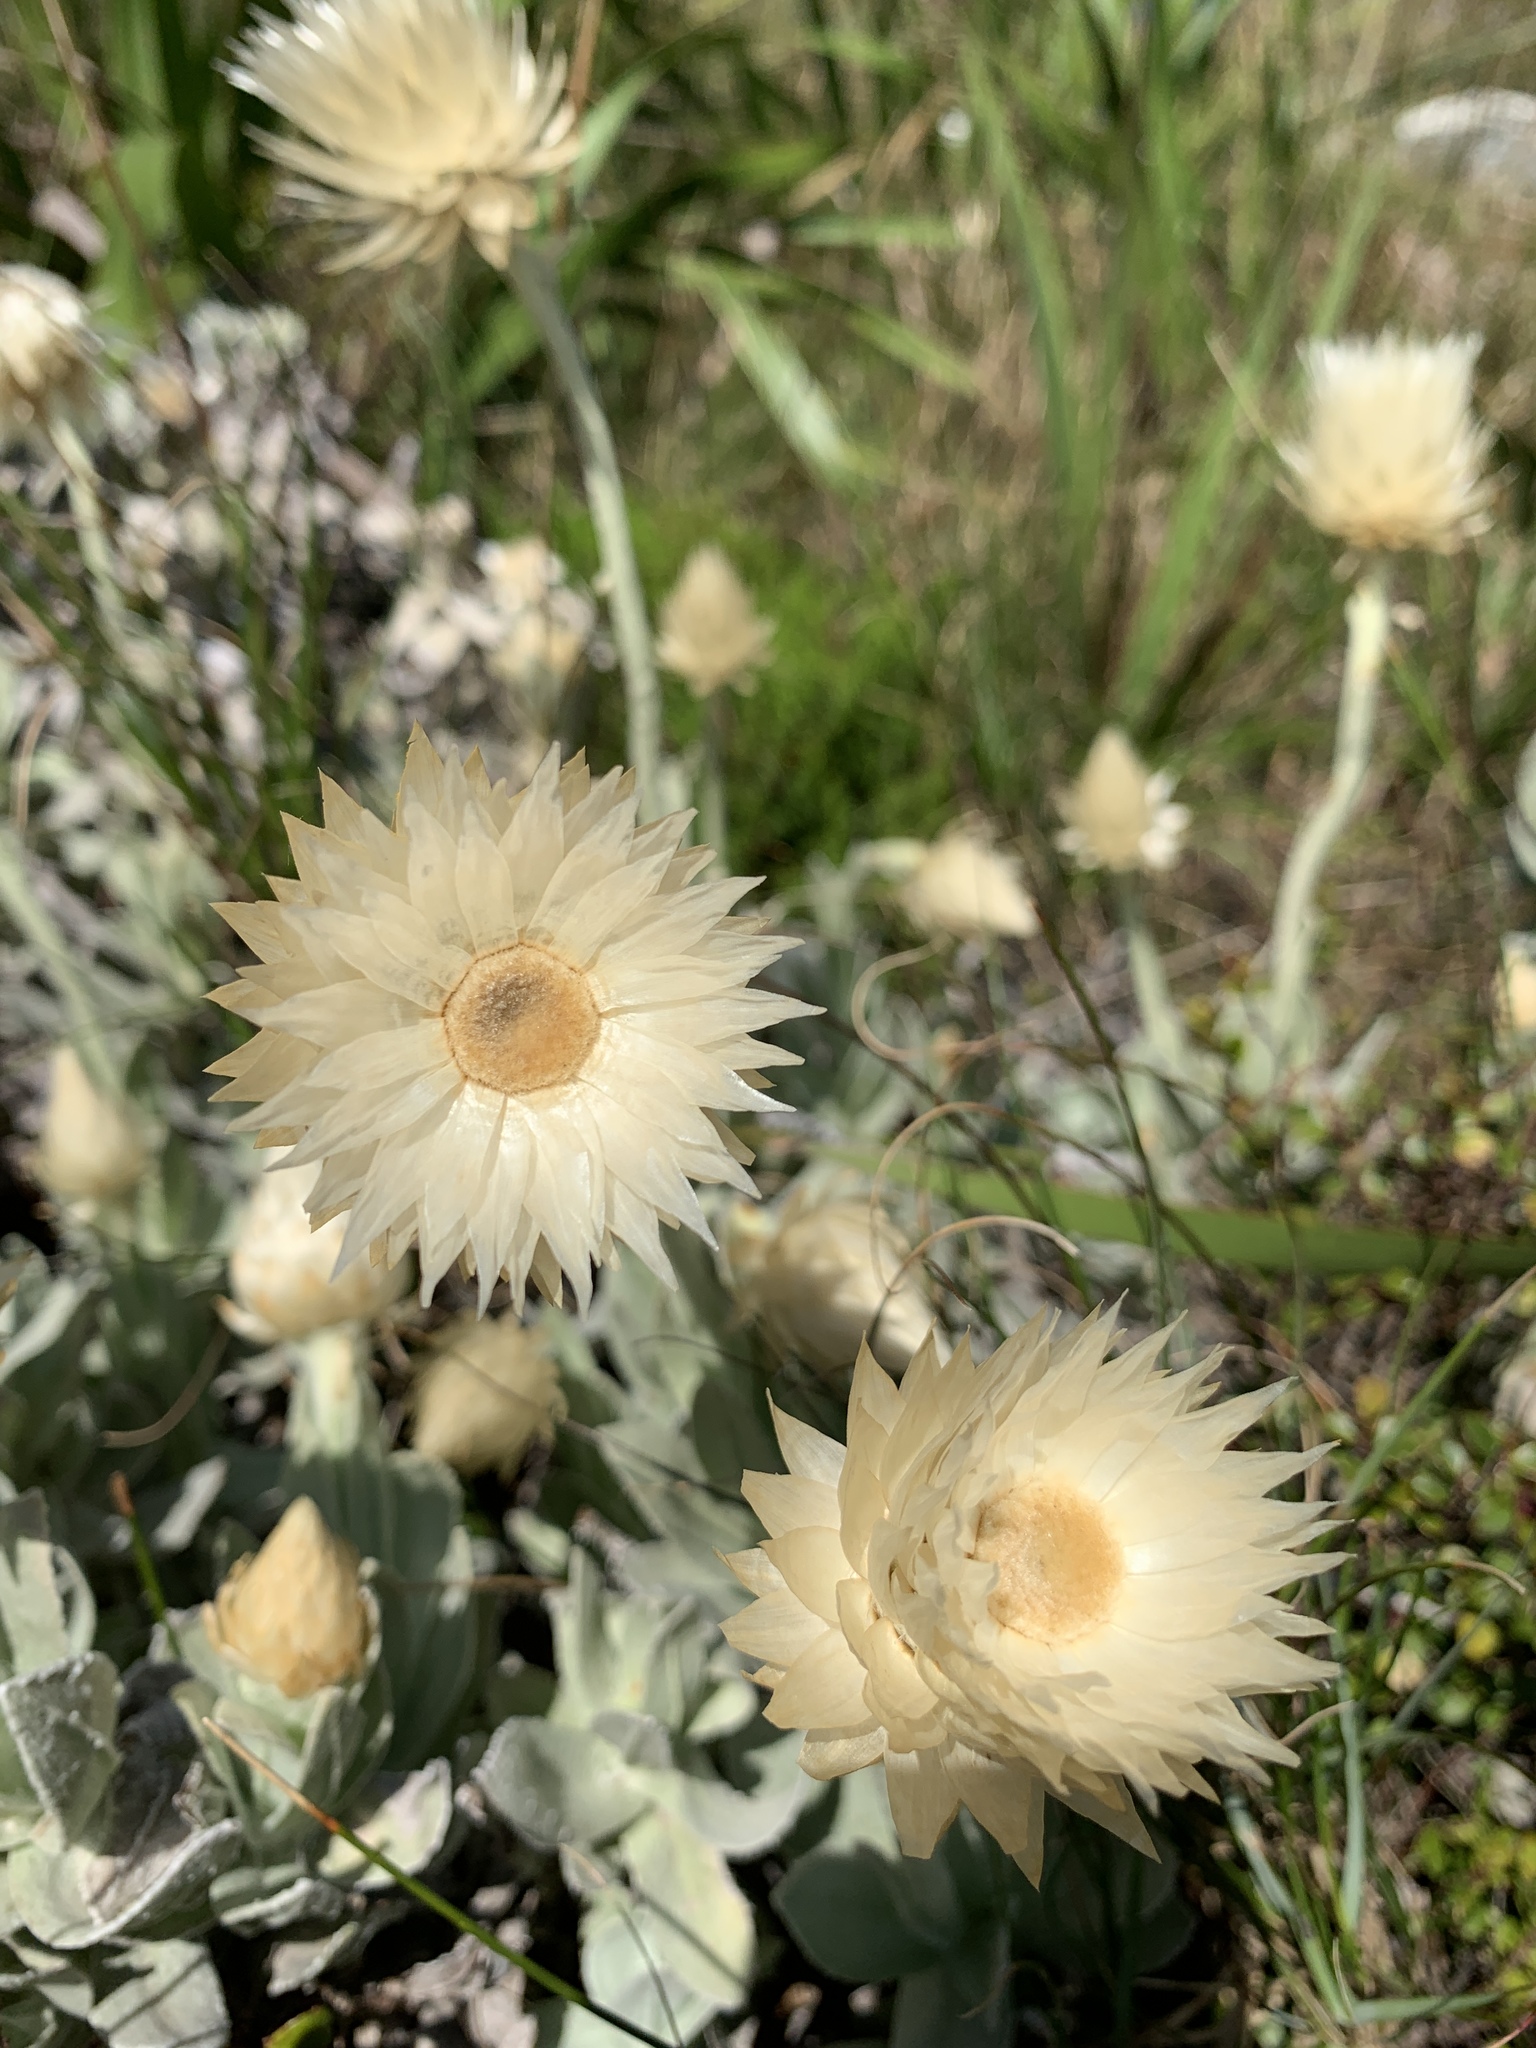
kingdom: Plantae
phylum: Tracheophyta
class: Magnoliopsida
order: Asterales
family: Asteraceae
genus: Syncarpha
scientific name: Syncarpha speciosissima
